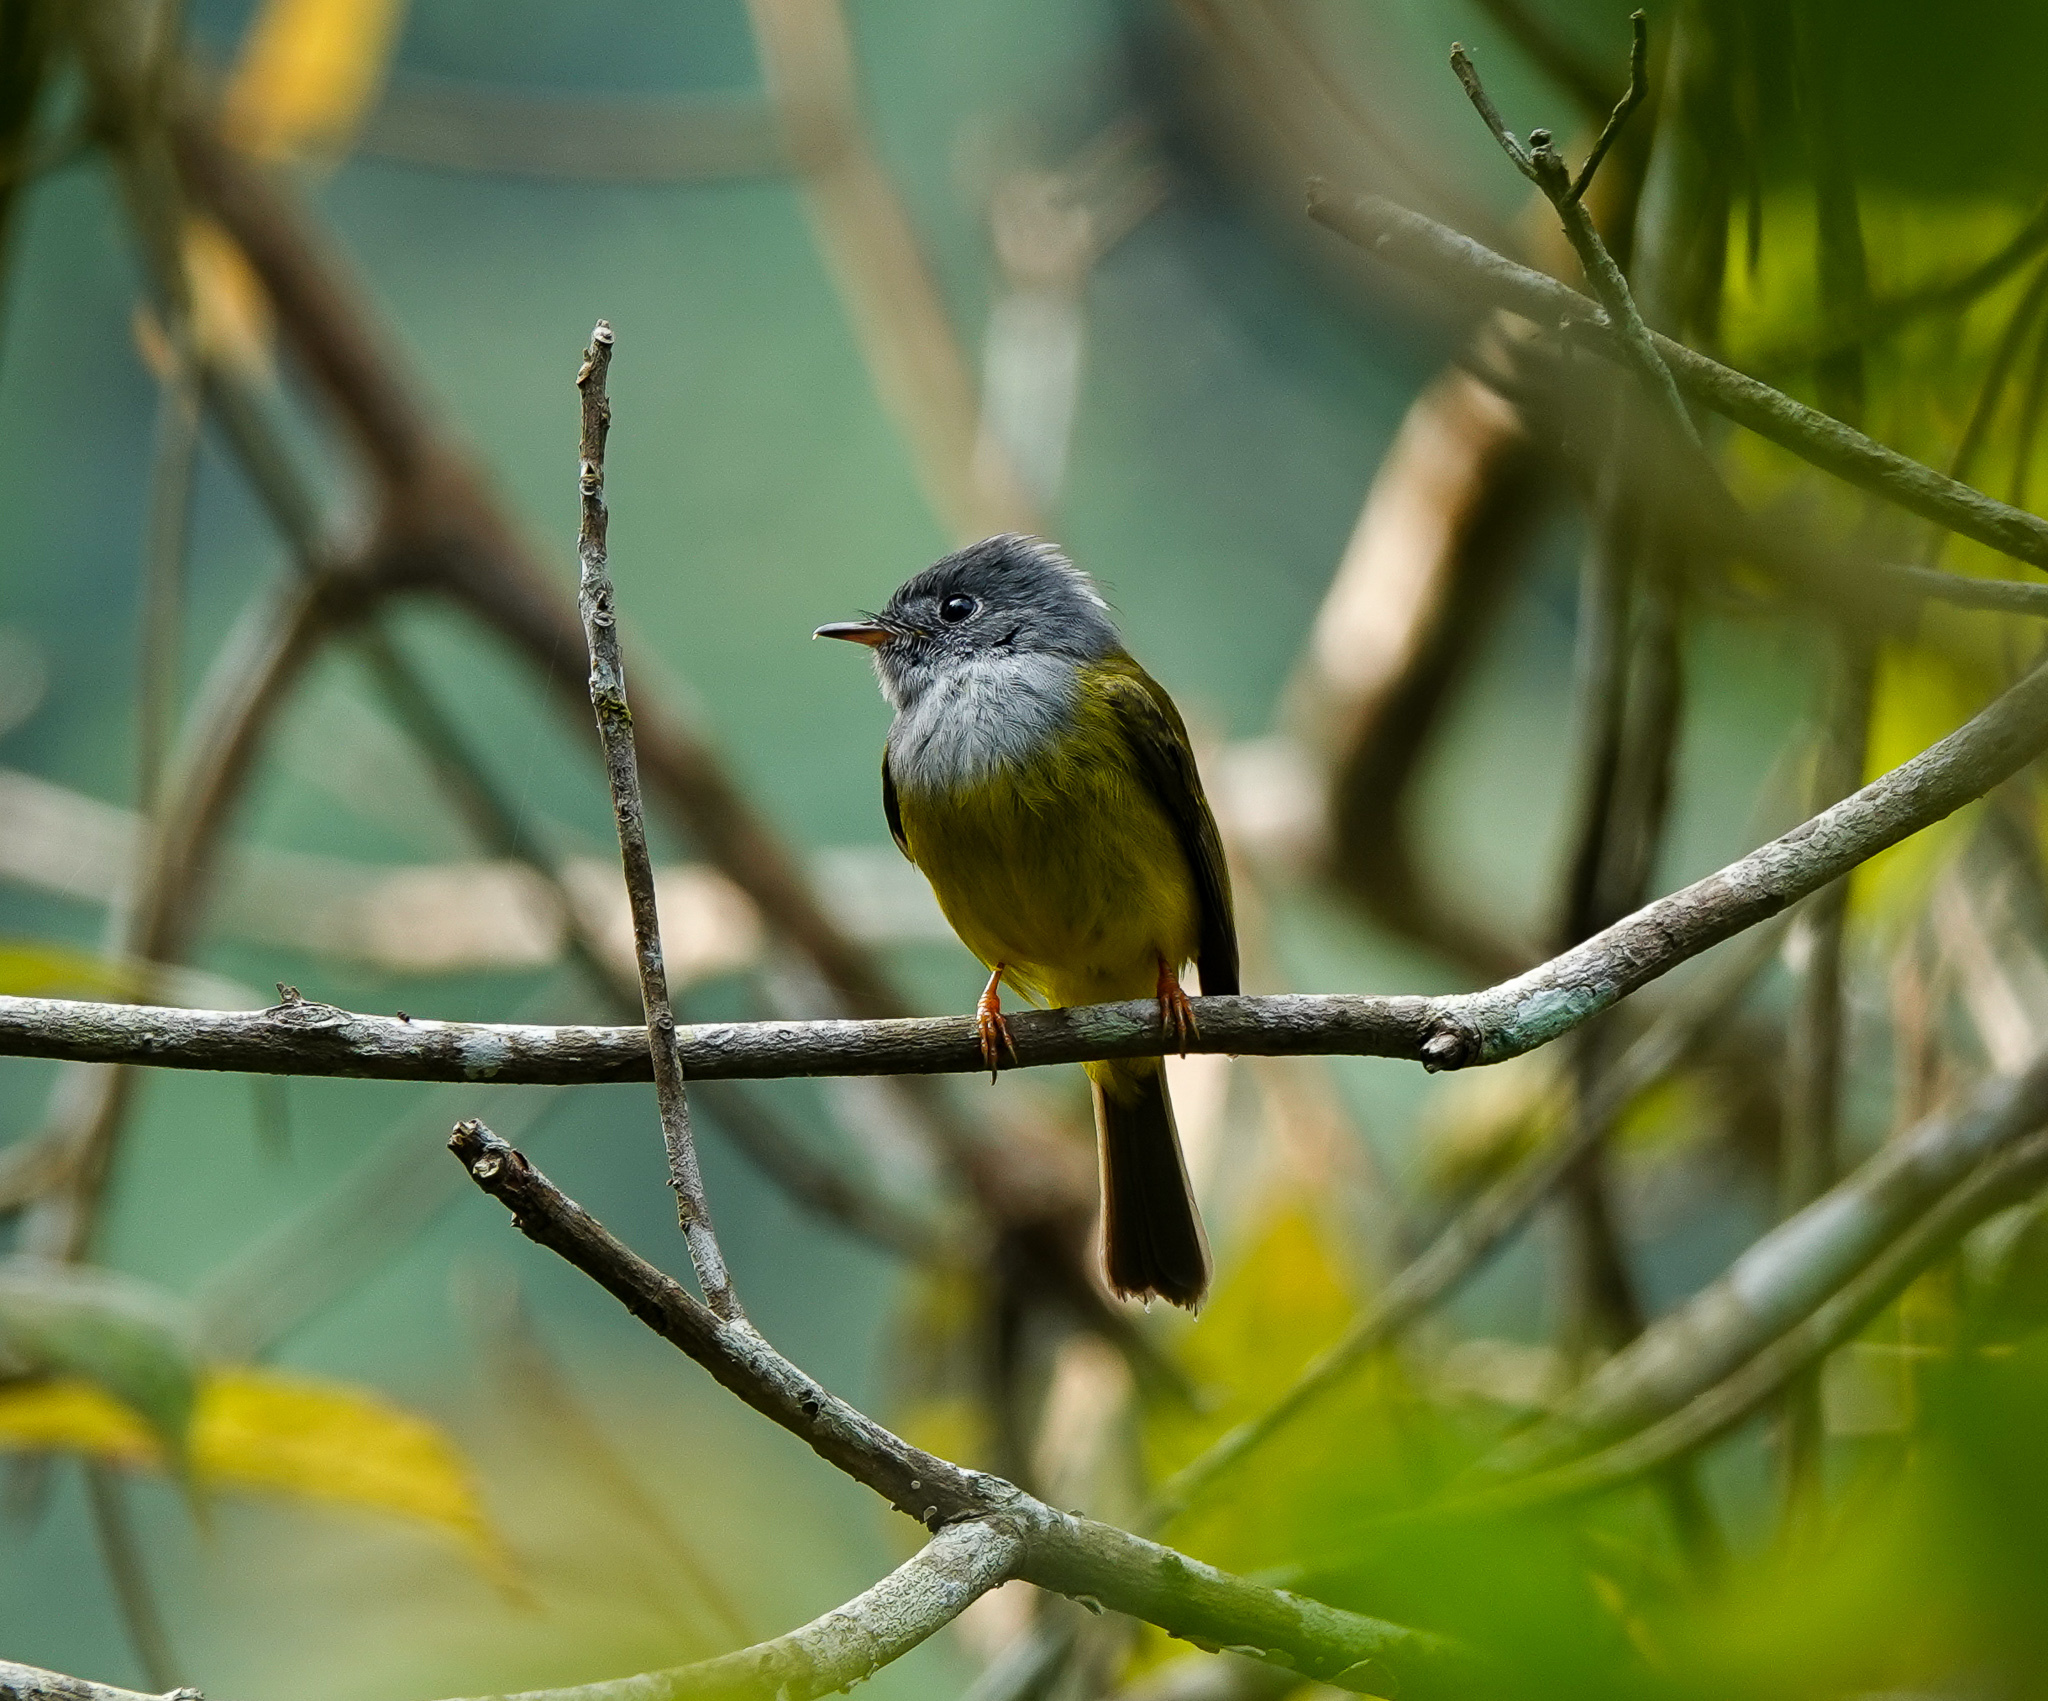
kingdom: Animalia
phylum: Chordata
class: Aves
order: Passeriformes
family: Stenostiridae
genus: Culicicapa
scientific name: Culicicapa ceylonensis
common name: Grey-headed canary-flycatcher
